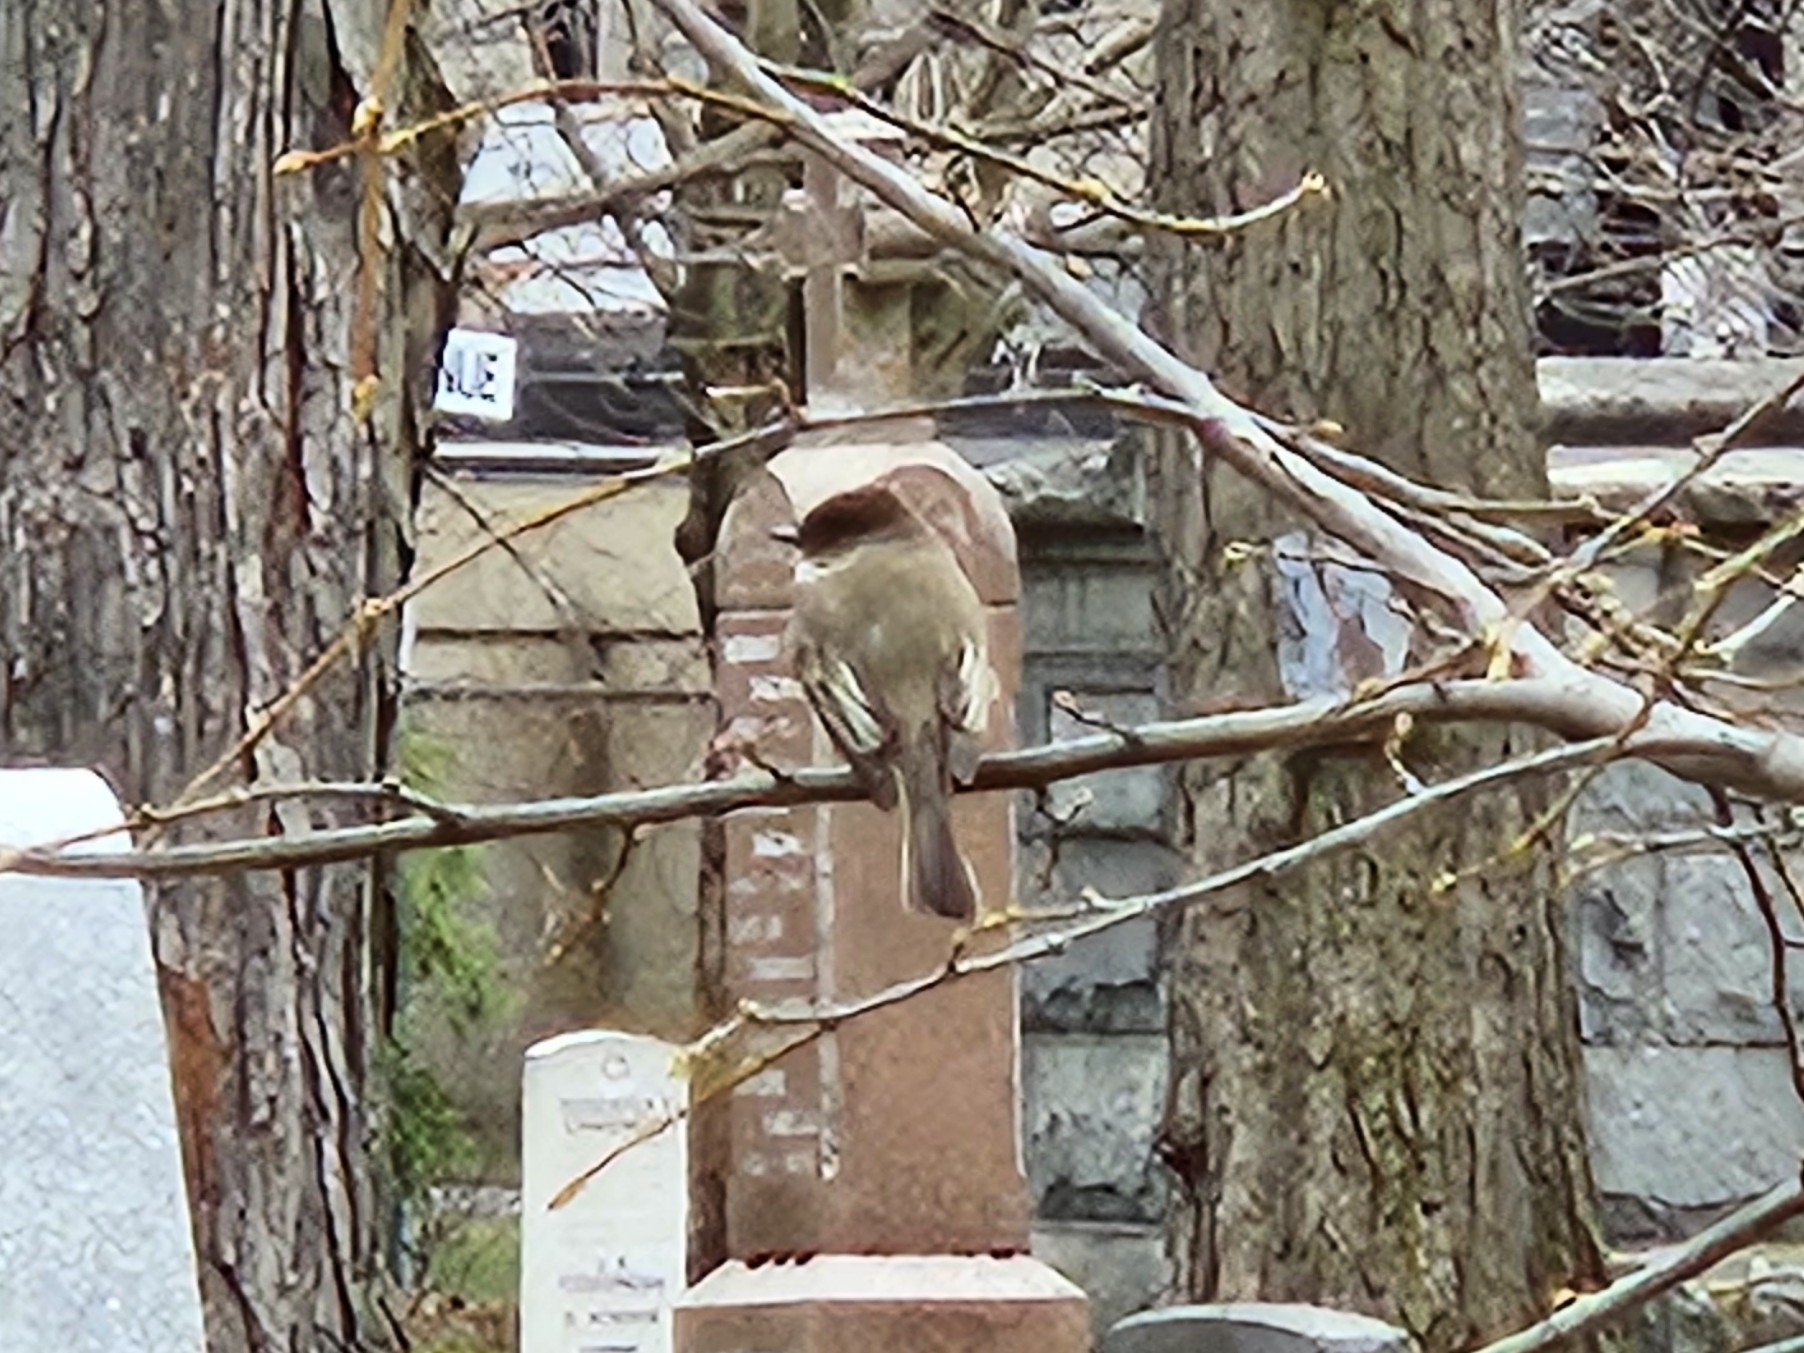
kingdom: Animalia
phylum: Chordata
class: Aves
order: Passeriformes
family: Tyrannidae
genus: Sayornis
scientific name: Sayornis phoebe
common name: Eastern phoebe
